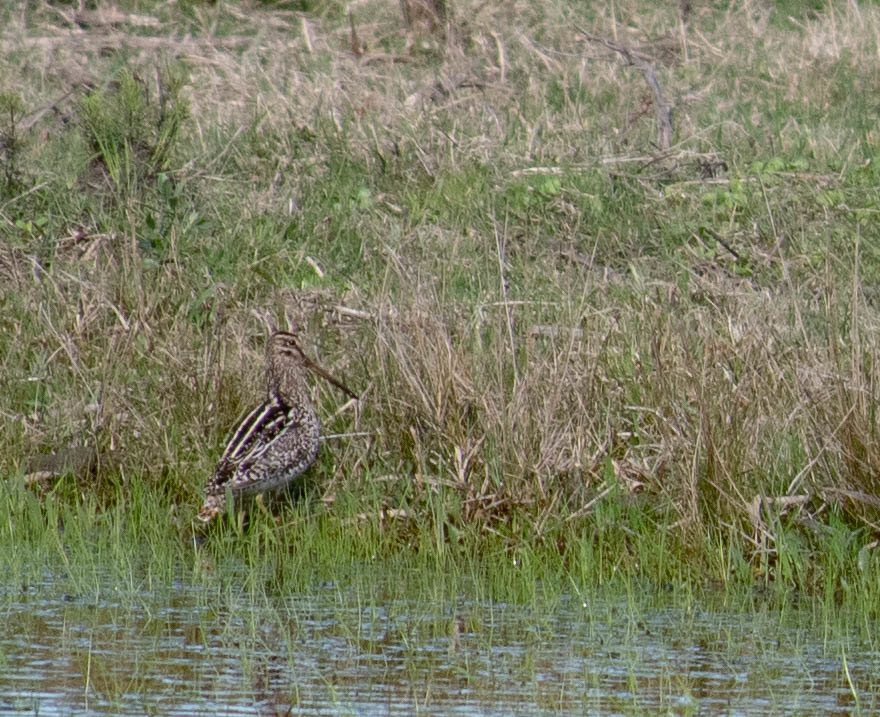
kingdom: Animalia
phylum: Chordata
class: Aves
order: Charadriiformes
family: Scolopacidae
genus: Gallinago
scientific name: Gallinago paraguaiae
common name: South american snipe
